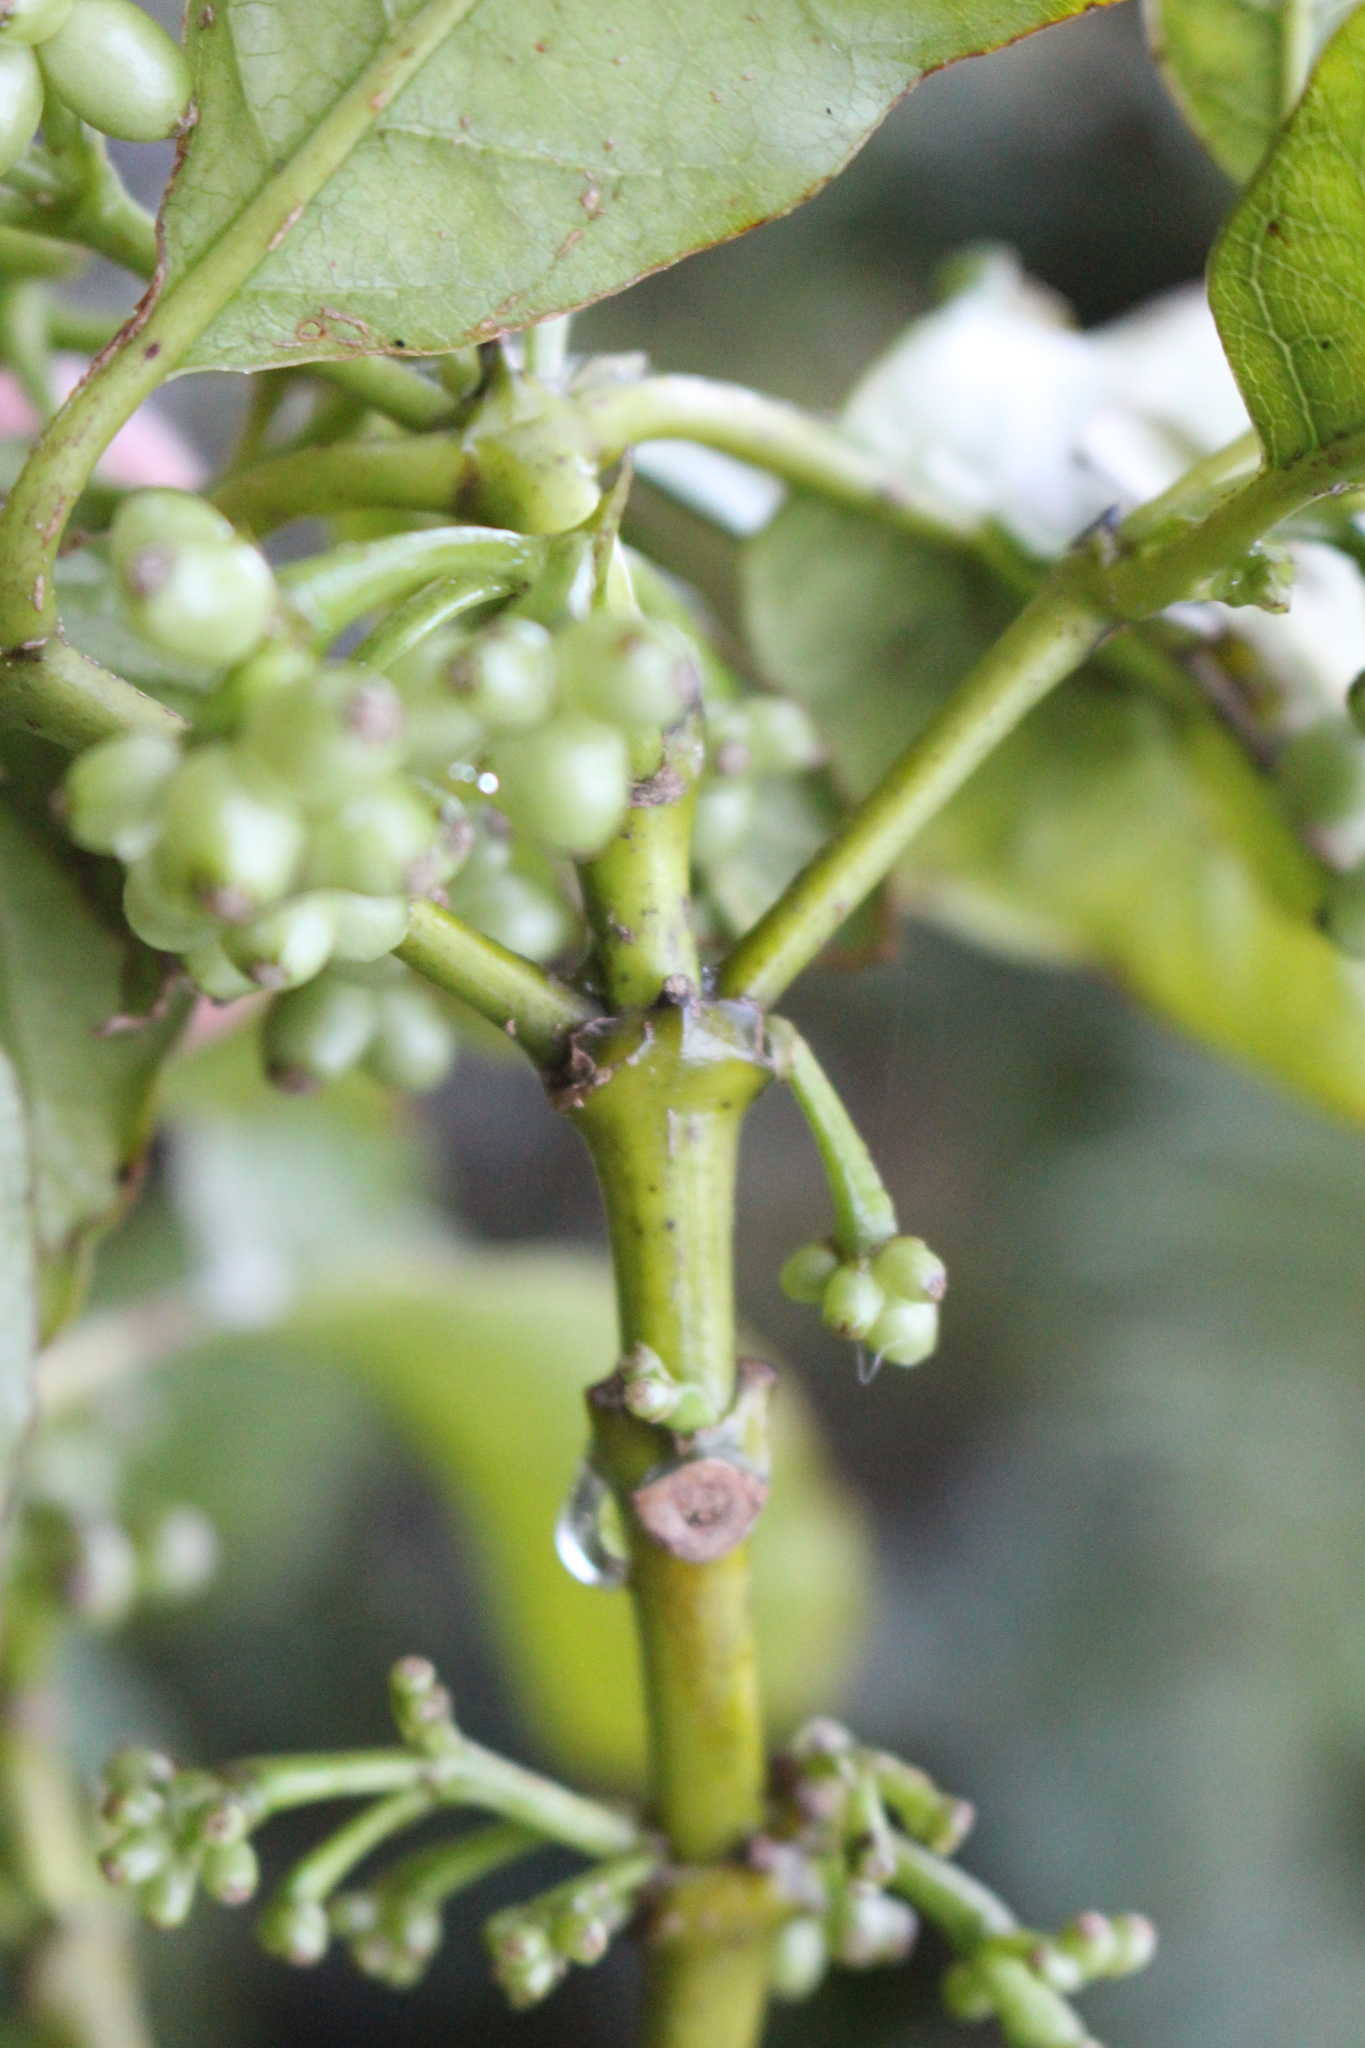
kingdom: Plantae
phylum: Tracheophyta
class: Magnoliopsida
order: Gentianales
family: Rubiaceae
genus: Coprosma
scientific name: Coprosma autumnalis
